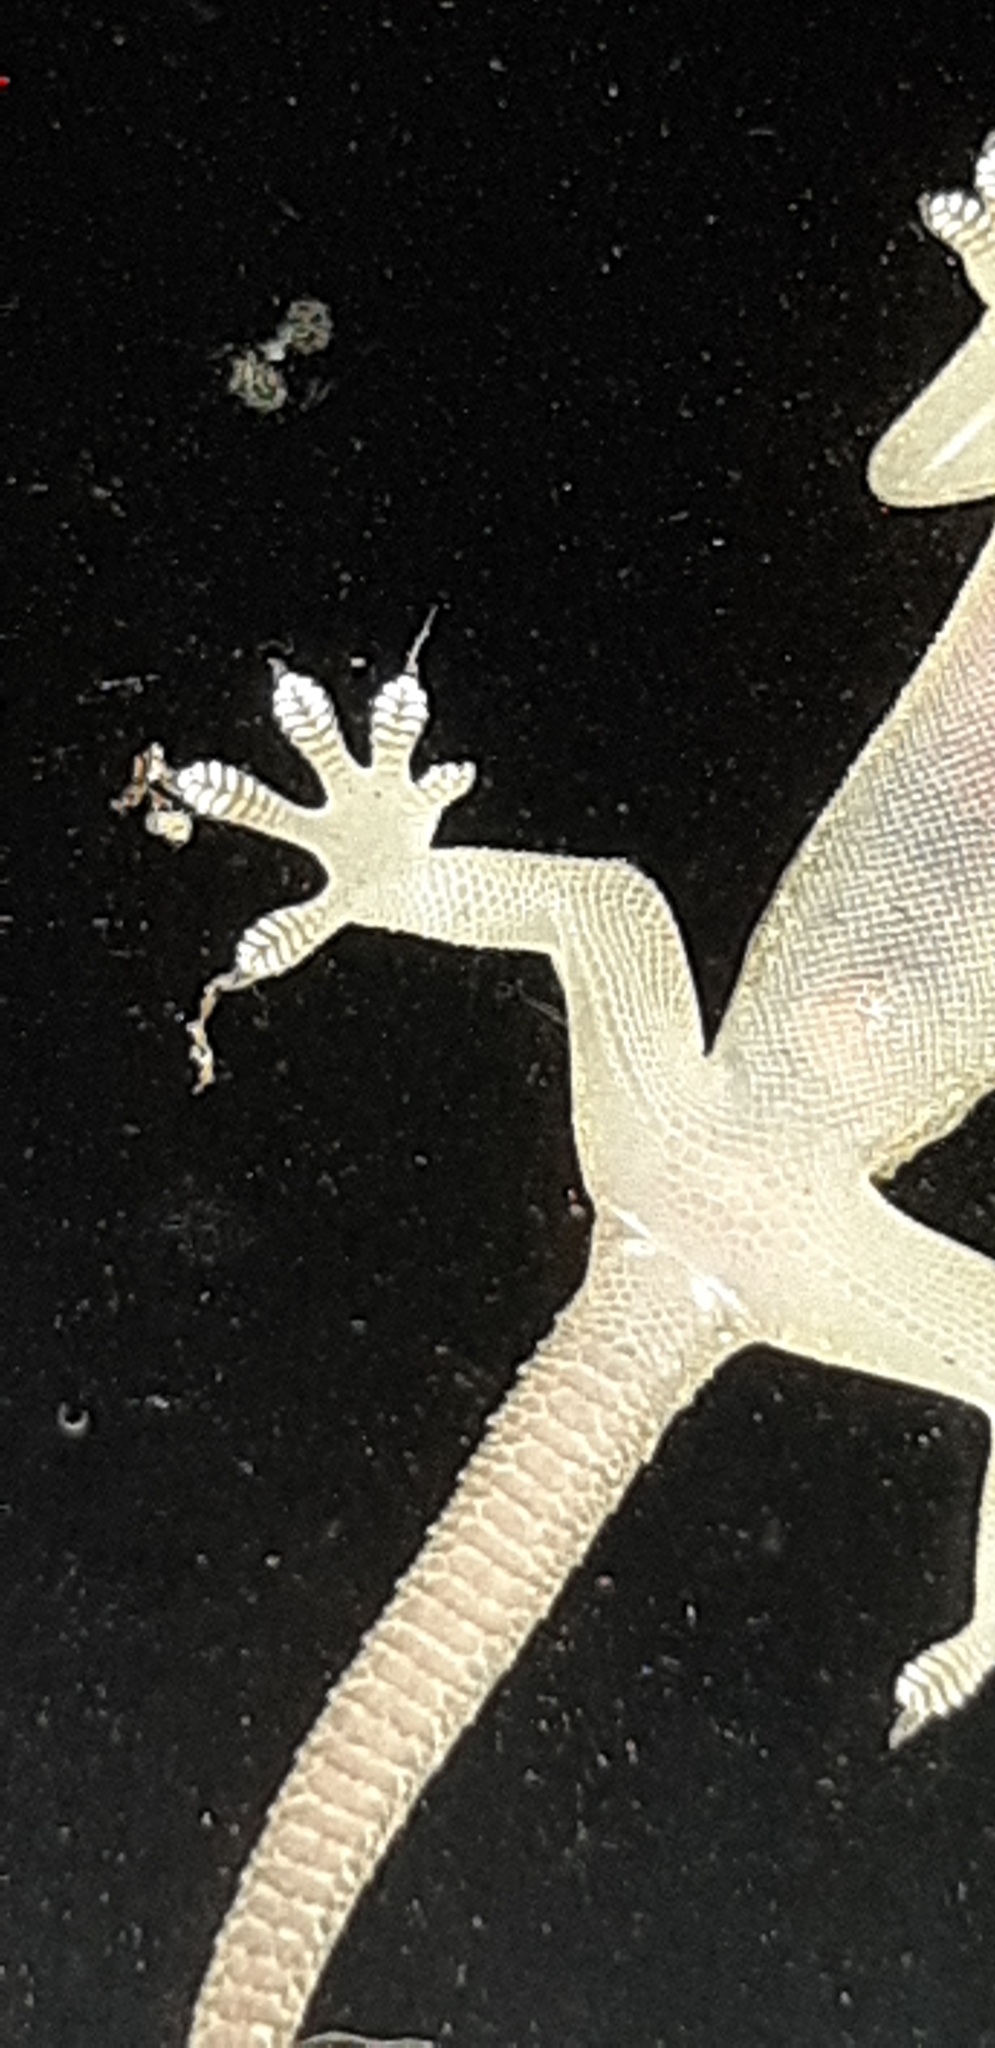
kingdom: Animalia
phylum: Chordata
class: Squamata
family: Gekkonidae
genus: Hemidactylus
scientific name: Hemidactylus mabouia
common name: House gecko
